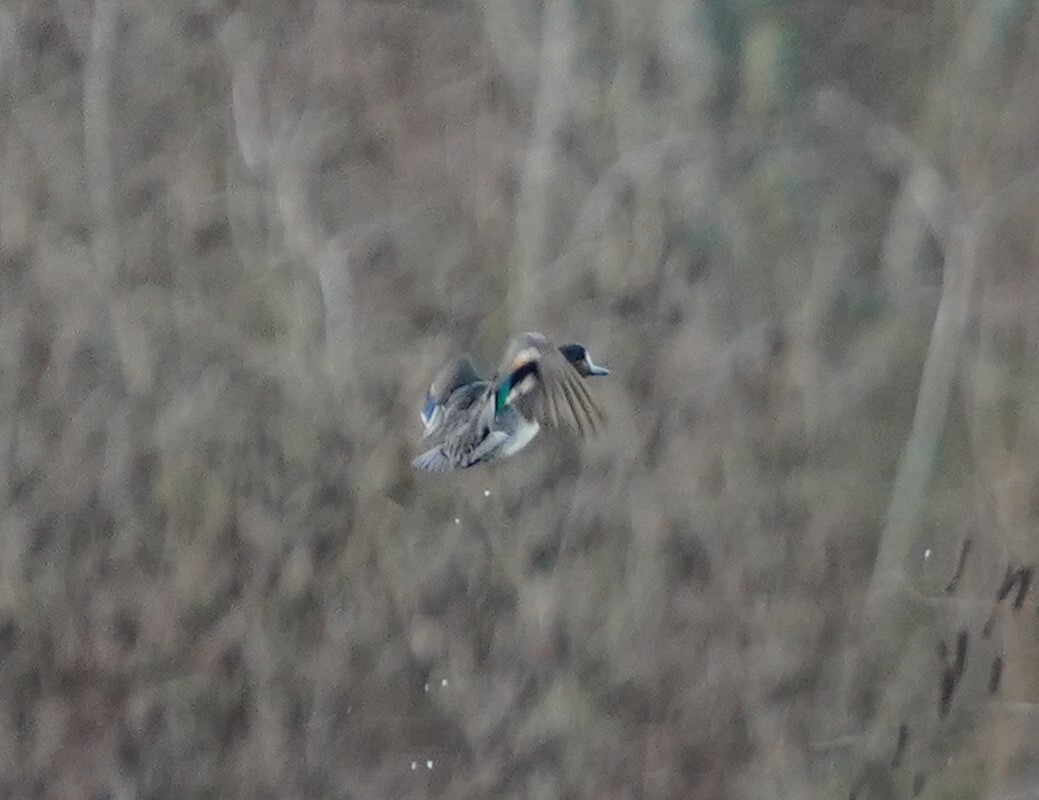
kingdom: Animalia
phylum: Chordata
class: Aves
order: Anseriformes
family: Anatidae
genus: Anas
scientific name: Anas crecca
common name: Eurasian teal
